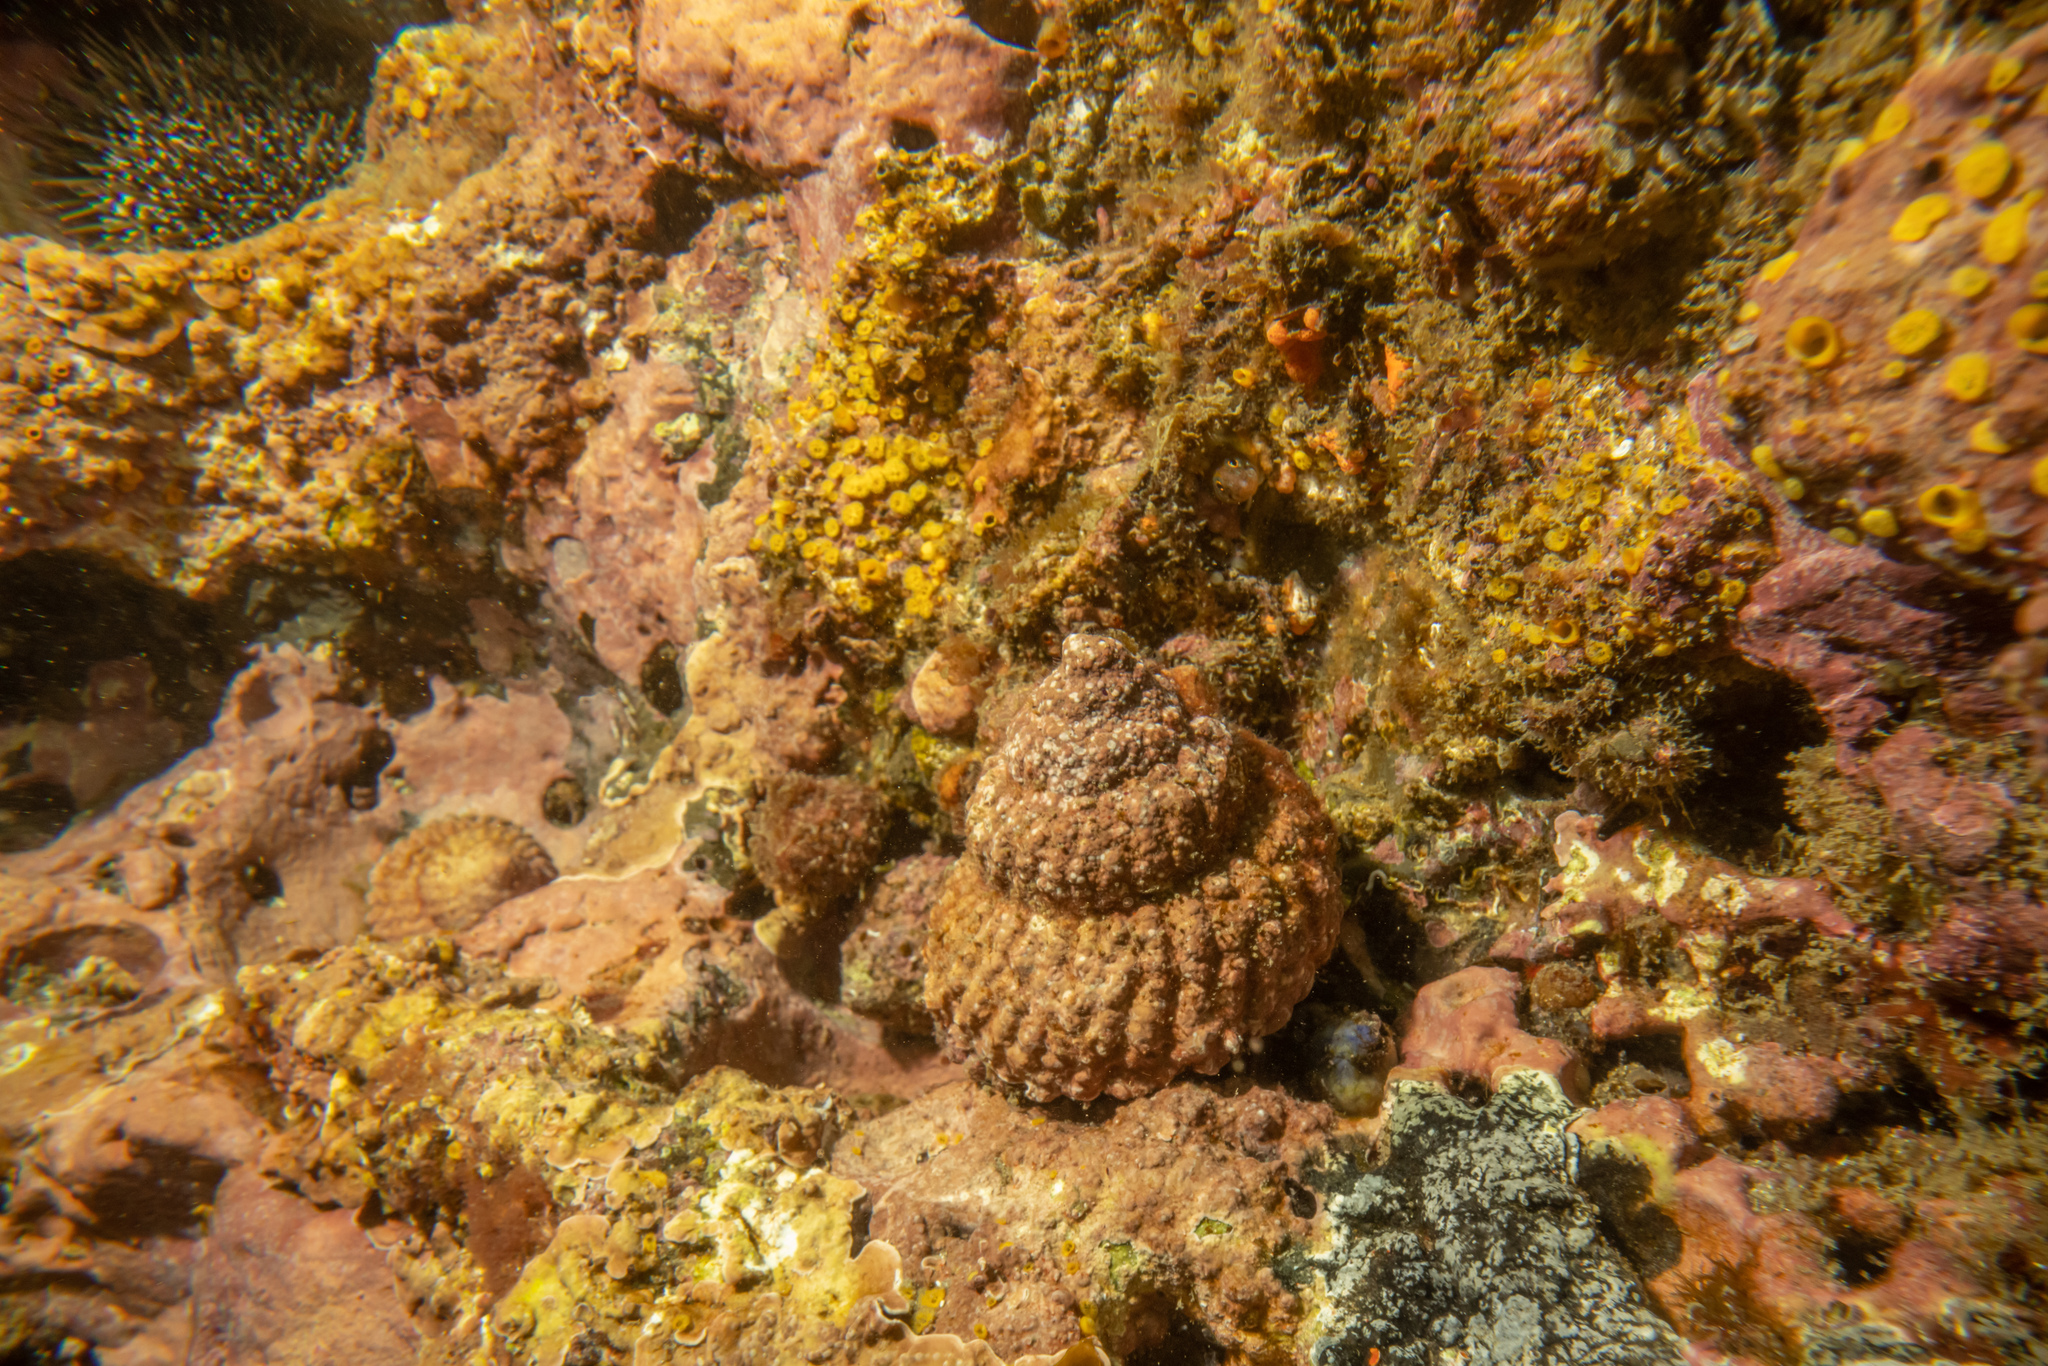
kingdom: Animalia
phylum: Mollusca
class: Gastropoda
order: Trochida
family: Turbinidae
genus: Cookia
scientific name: Cookia sulcata
